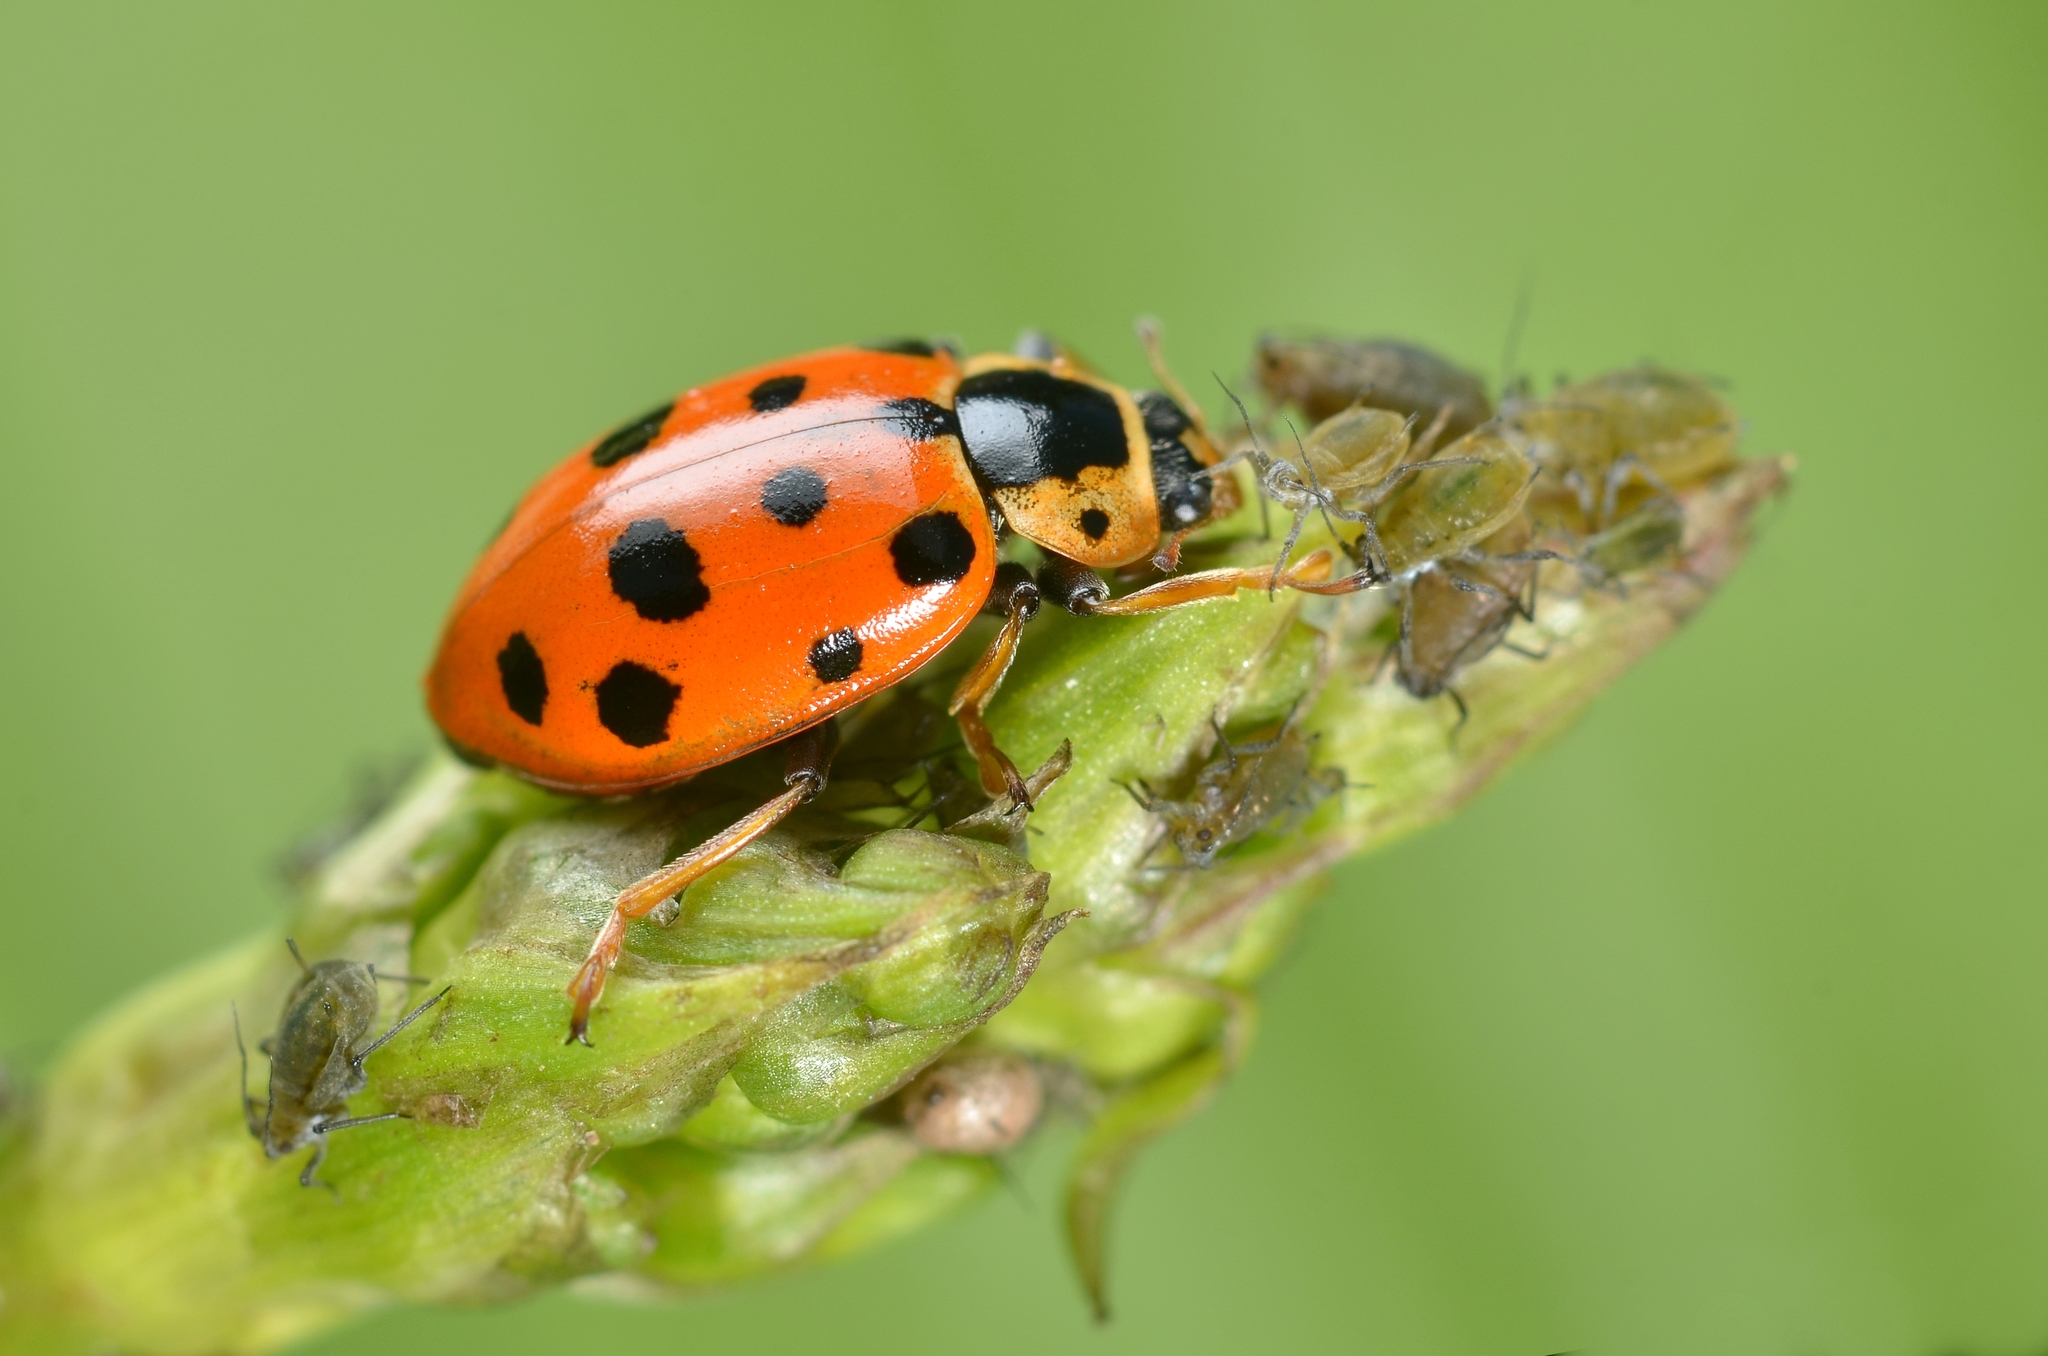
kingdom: Animalia
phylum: Arthropoda
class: Insecta
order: Coleoptera
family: Coccinellidae
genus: Hippodamia
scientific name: Hippodamia tredecimpunctata
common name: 13-spot ladybird
